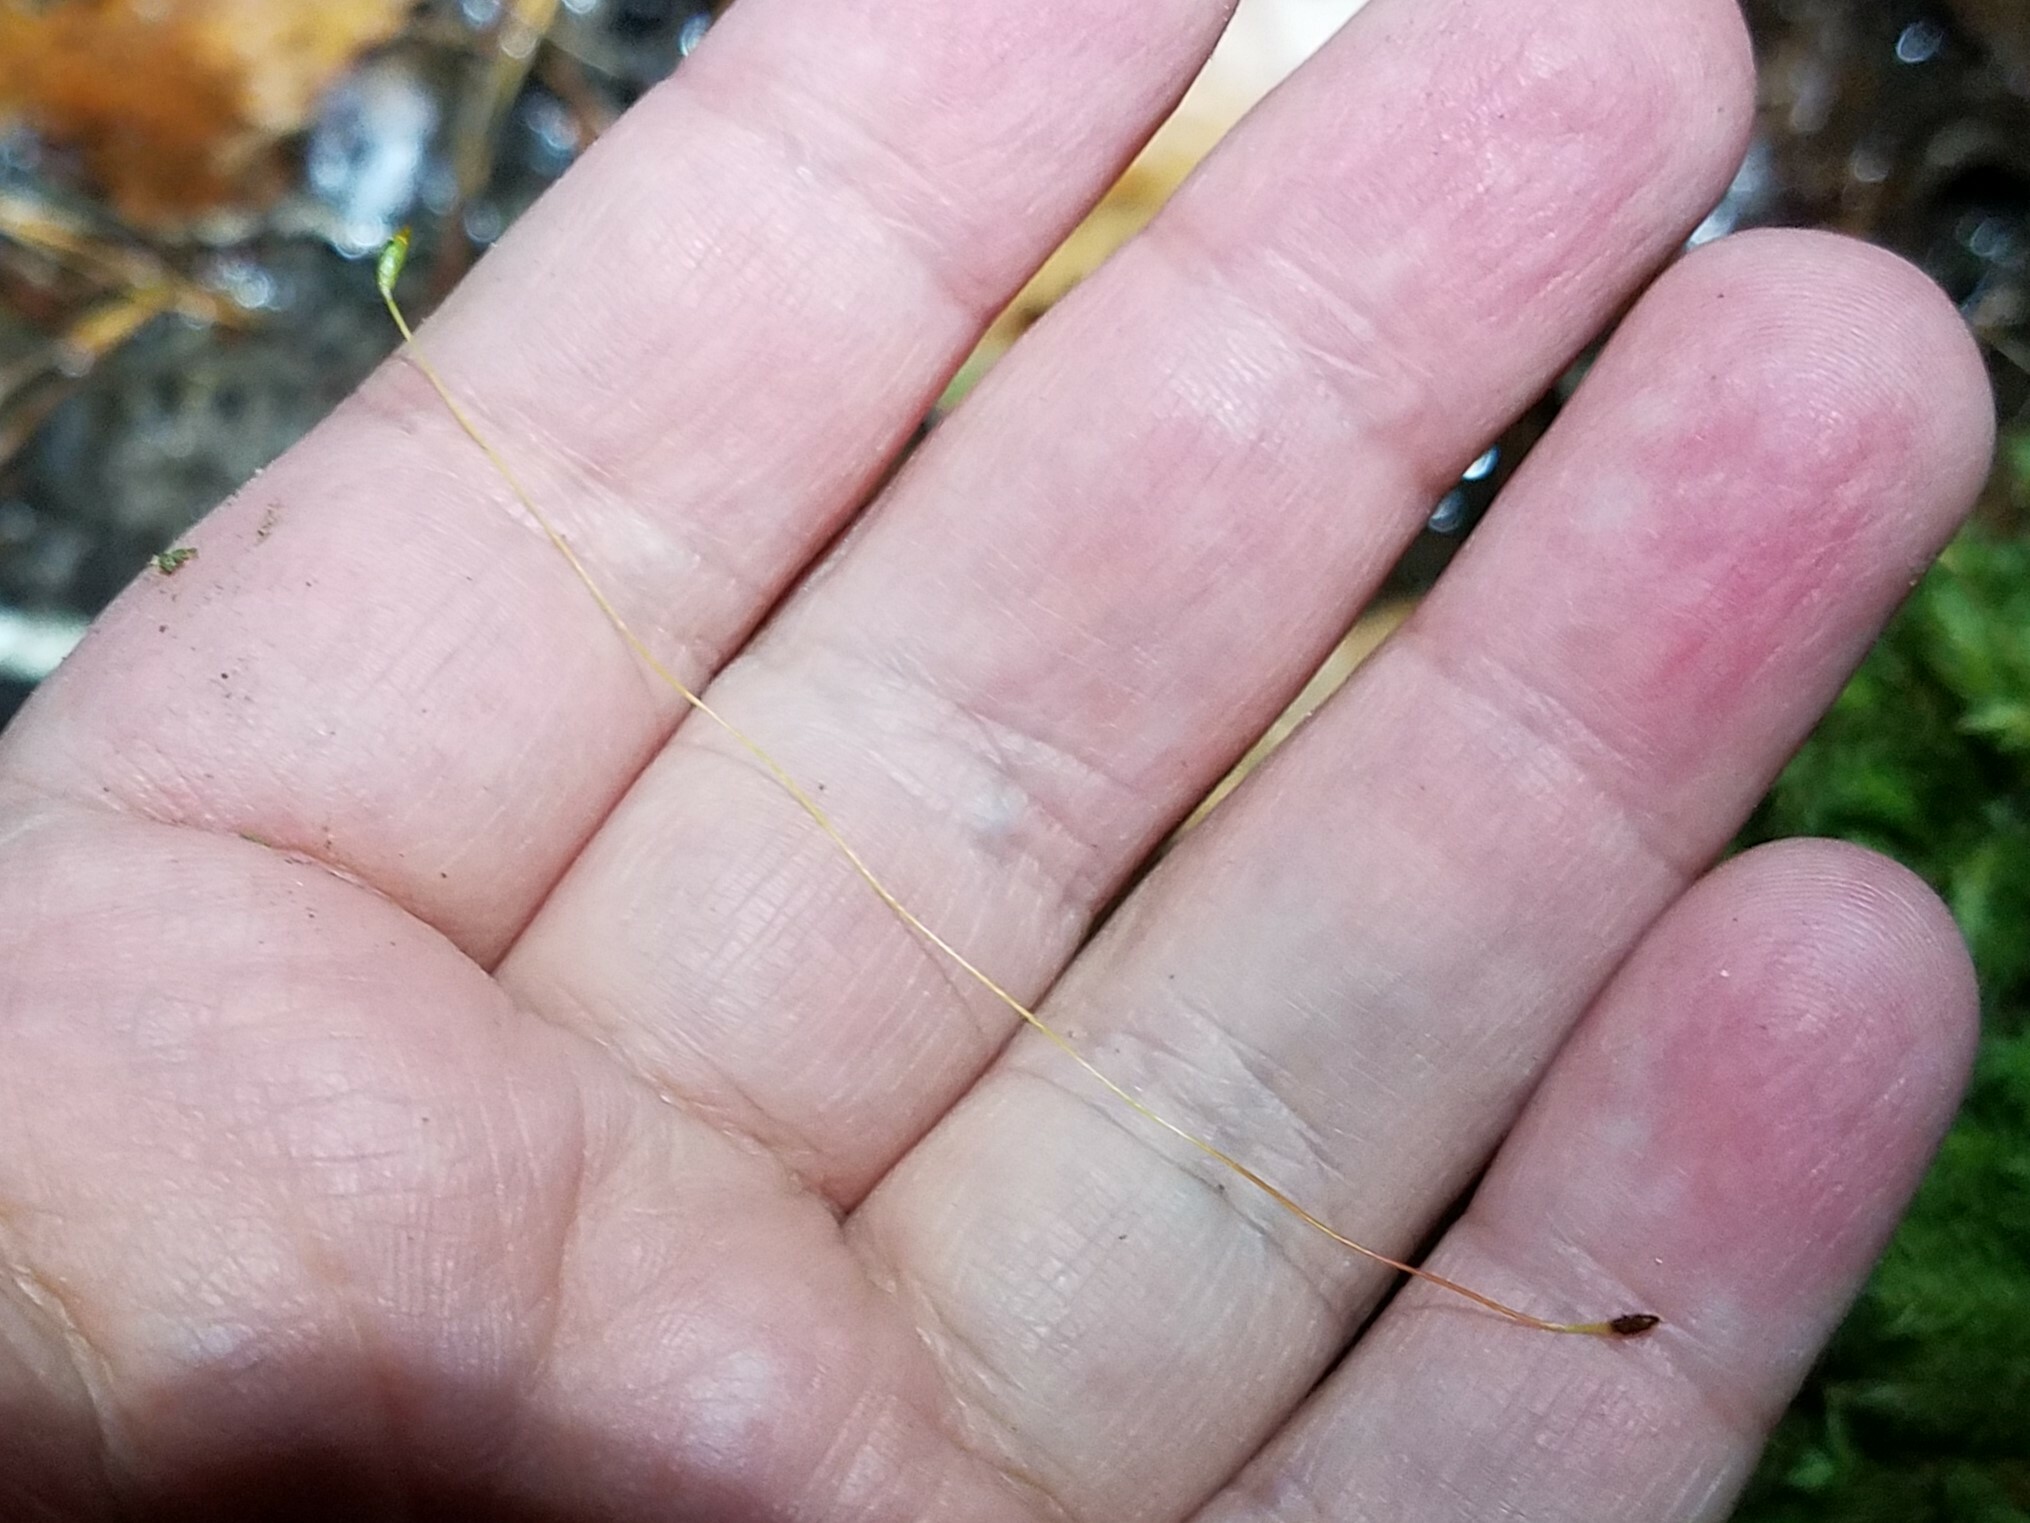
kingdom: Plantae
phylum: Bryophyta
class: Bryopsida
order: Rhizogoniales
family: Calomniaceae
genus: Pyrrhobryum
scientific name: Pyrrhobryum spiniforme
